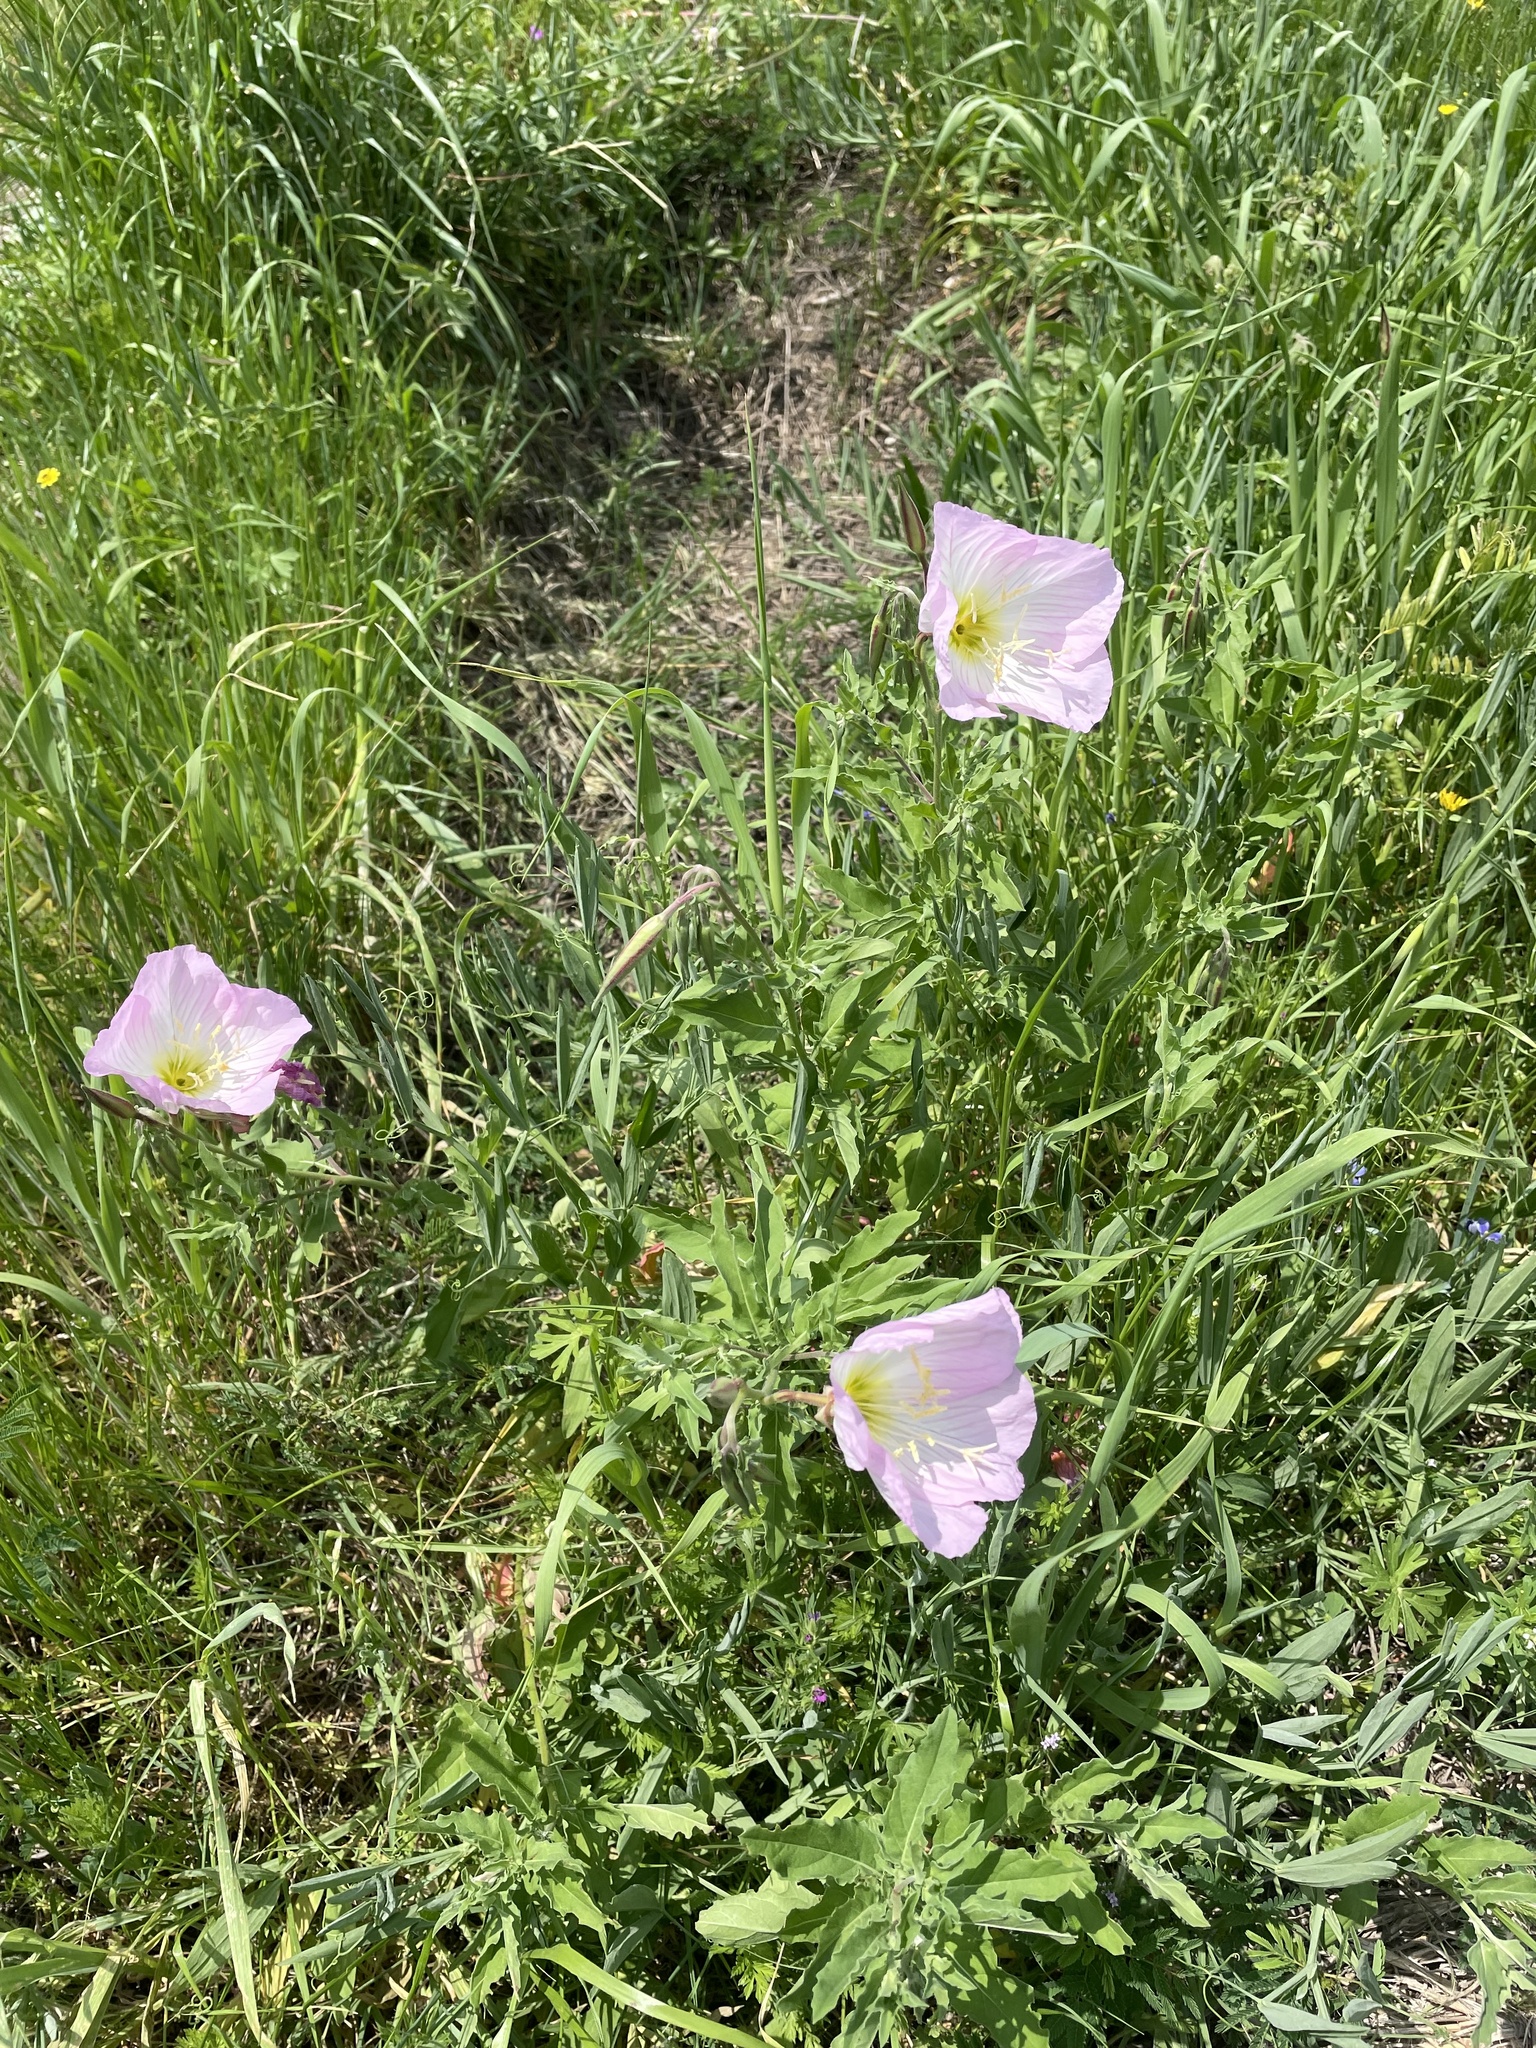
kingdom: Plantae
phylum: Tracheophyta
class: Magnoliopsida
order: Myrtales
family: Onagraceae
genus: Oenothera
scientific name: Oenothera speciosa
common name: White evening-primrose
